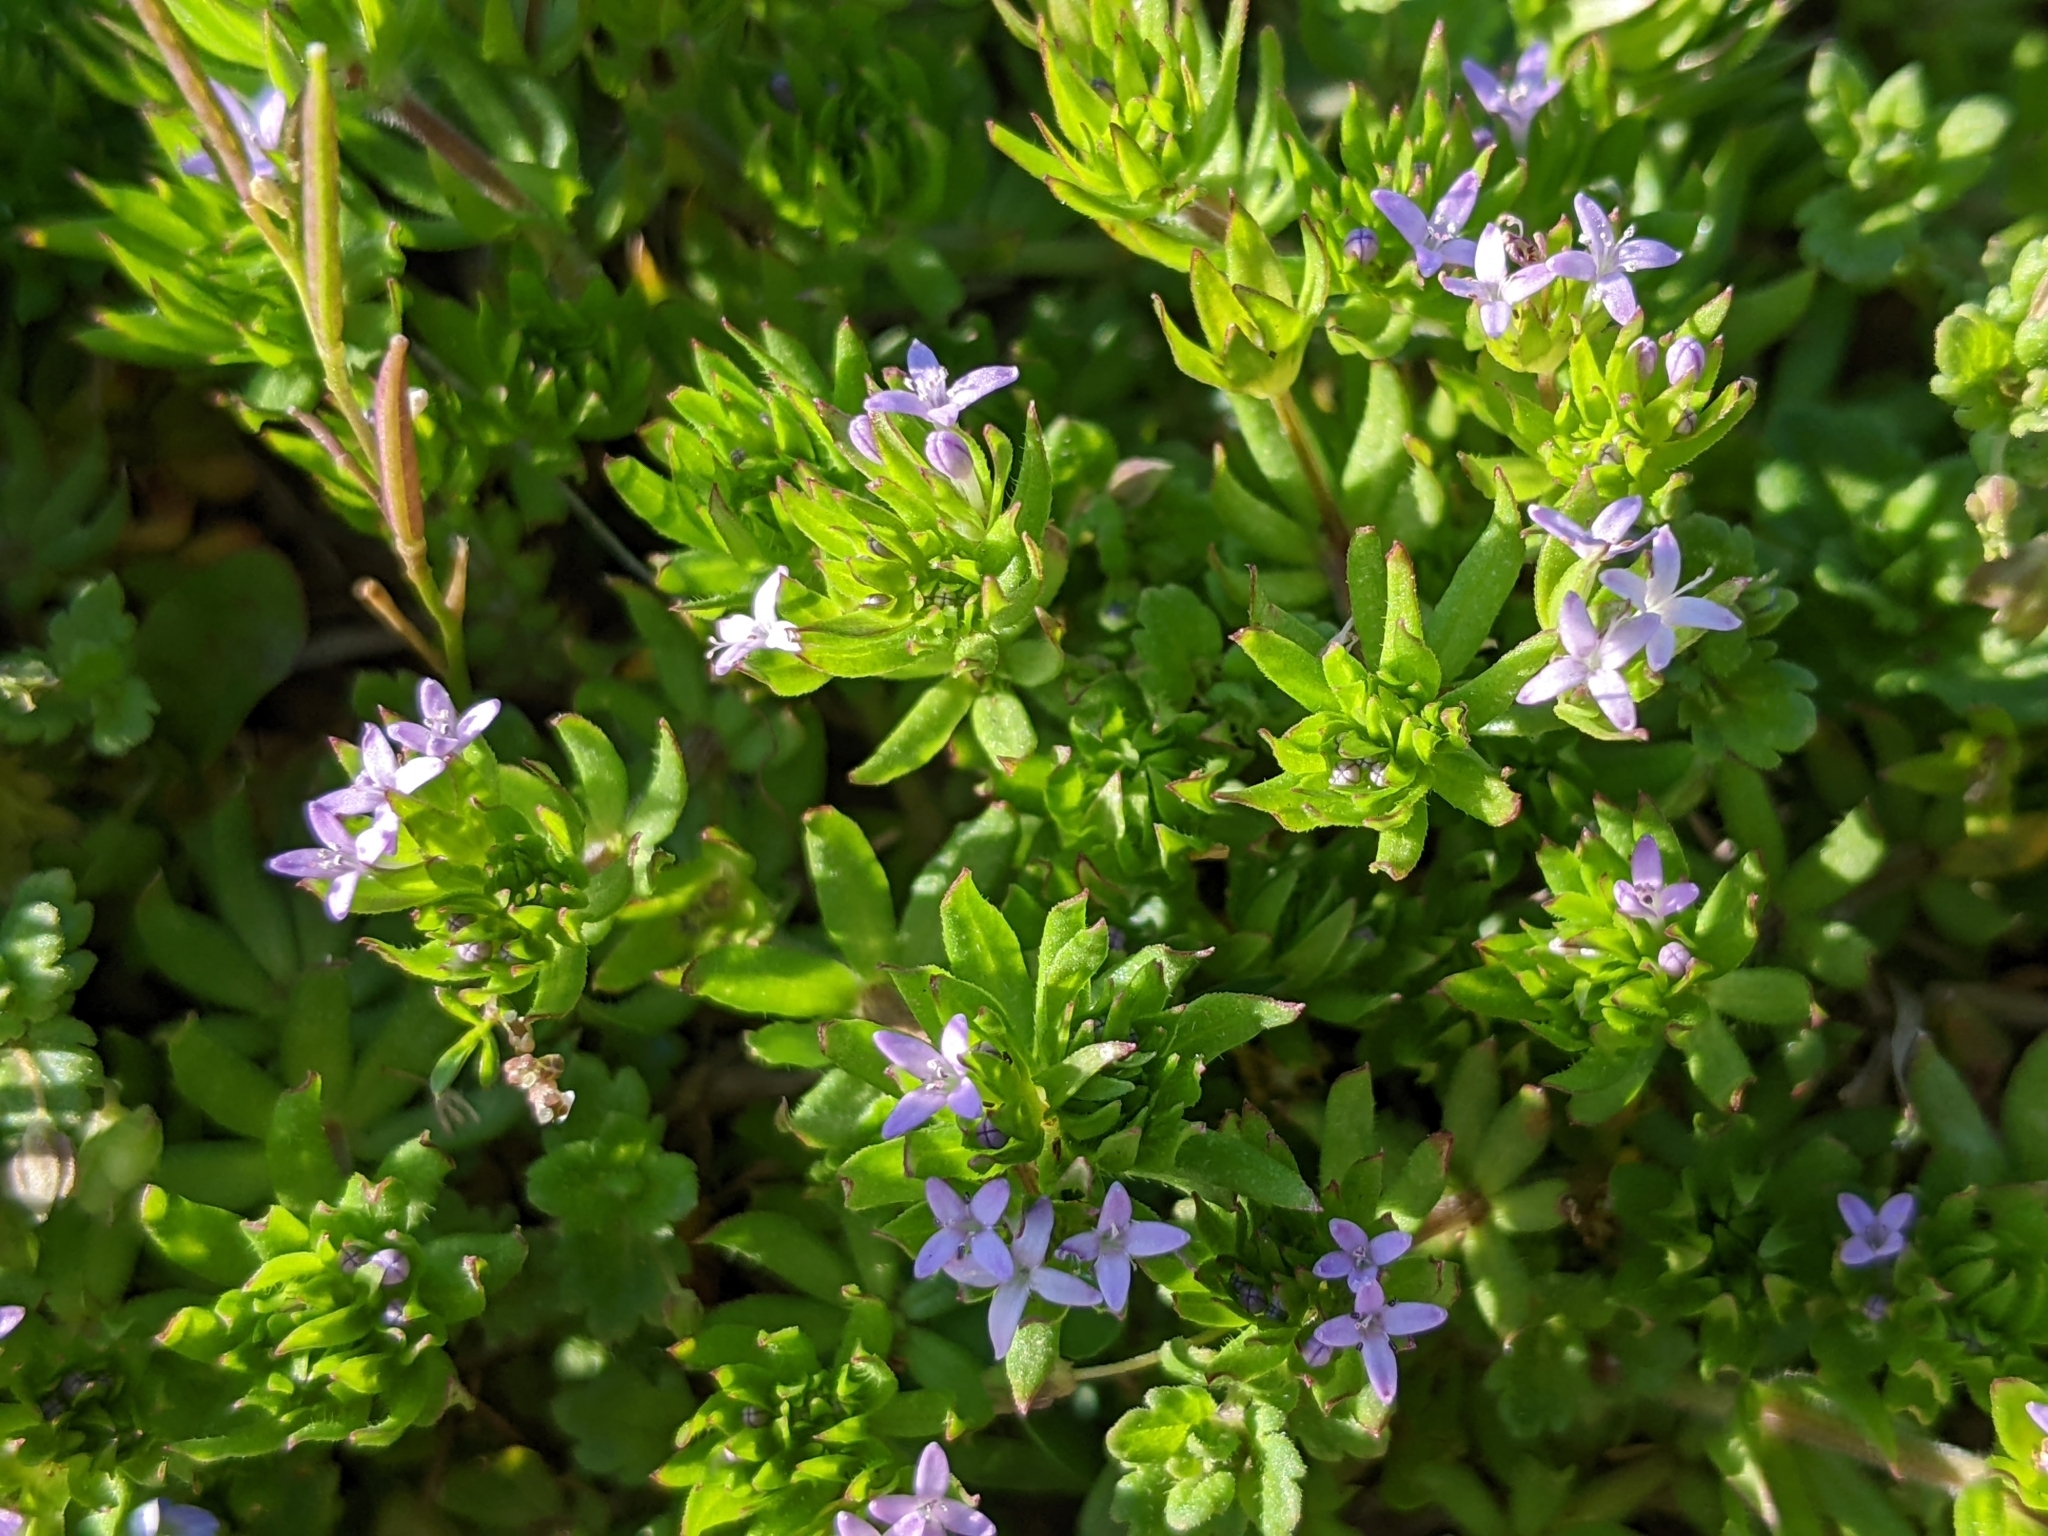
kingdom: Plantae
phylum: Tracheophyta
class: Magnoliopsida
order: Gentianales
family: Rubiaceae
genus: Sherardia
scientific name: Sherardia arvensis
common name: Field madder
